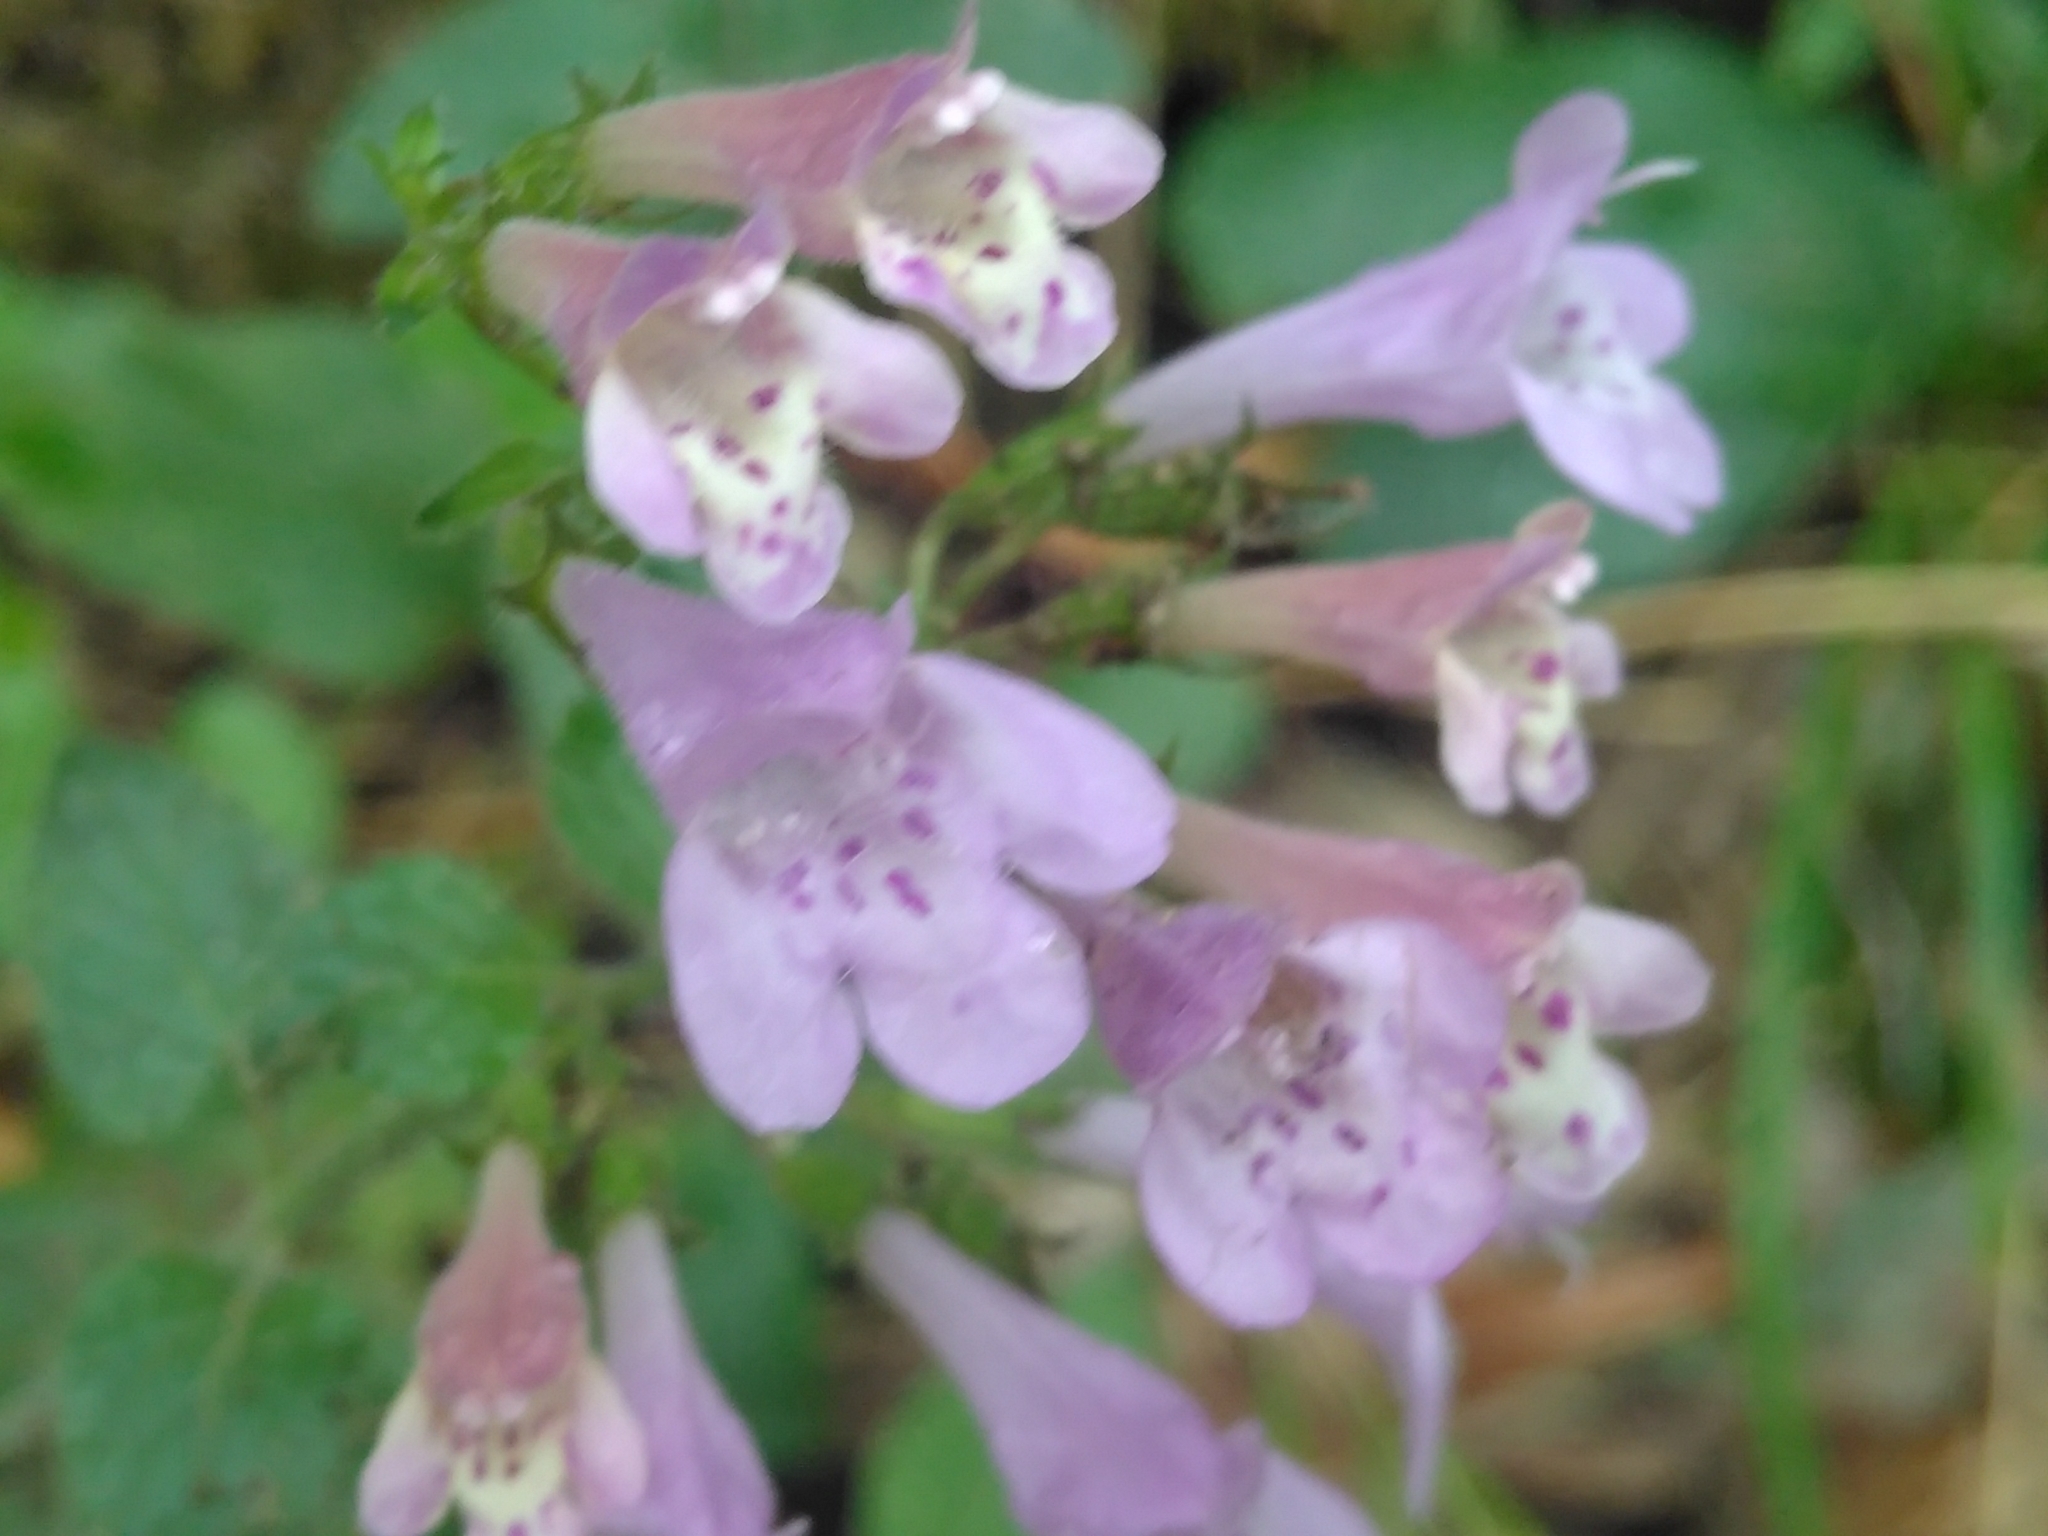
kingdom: Plantae
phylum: Tracheophyta
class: Magnoliopsida
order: Lamiales
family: Lamiaceae
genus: Clinopodium
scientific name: Clinopodium menthifolium
